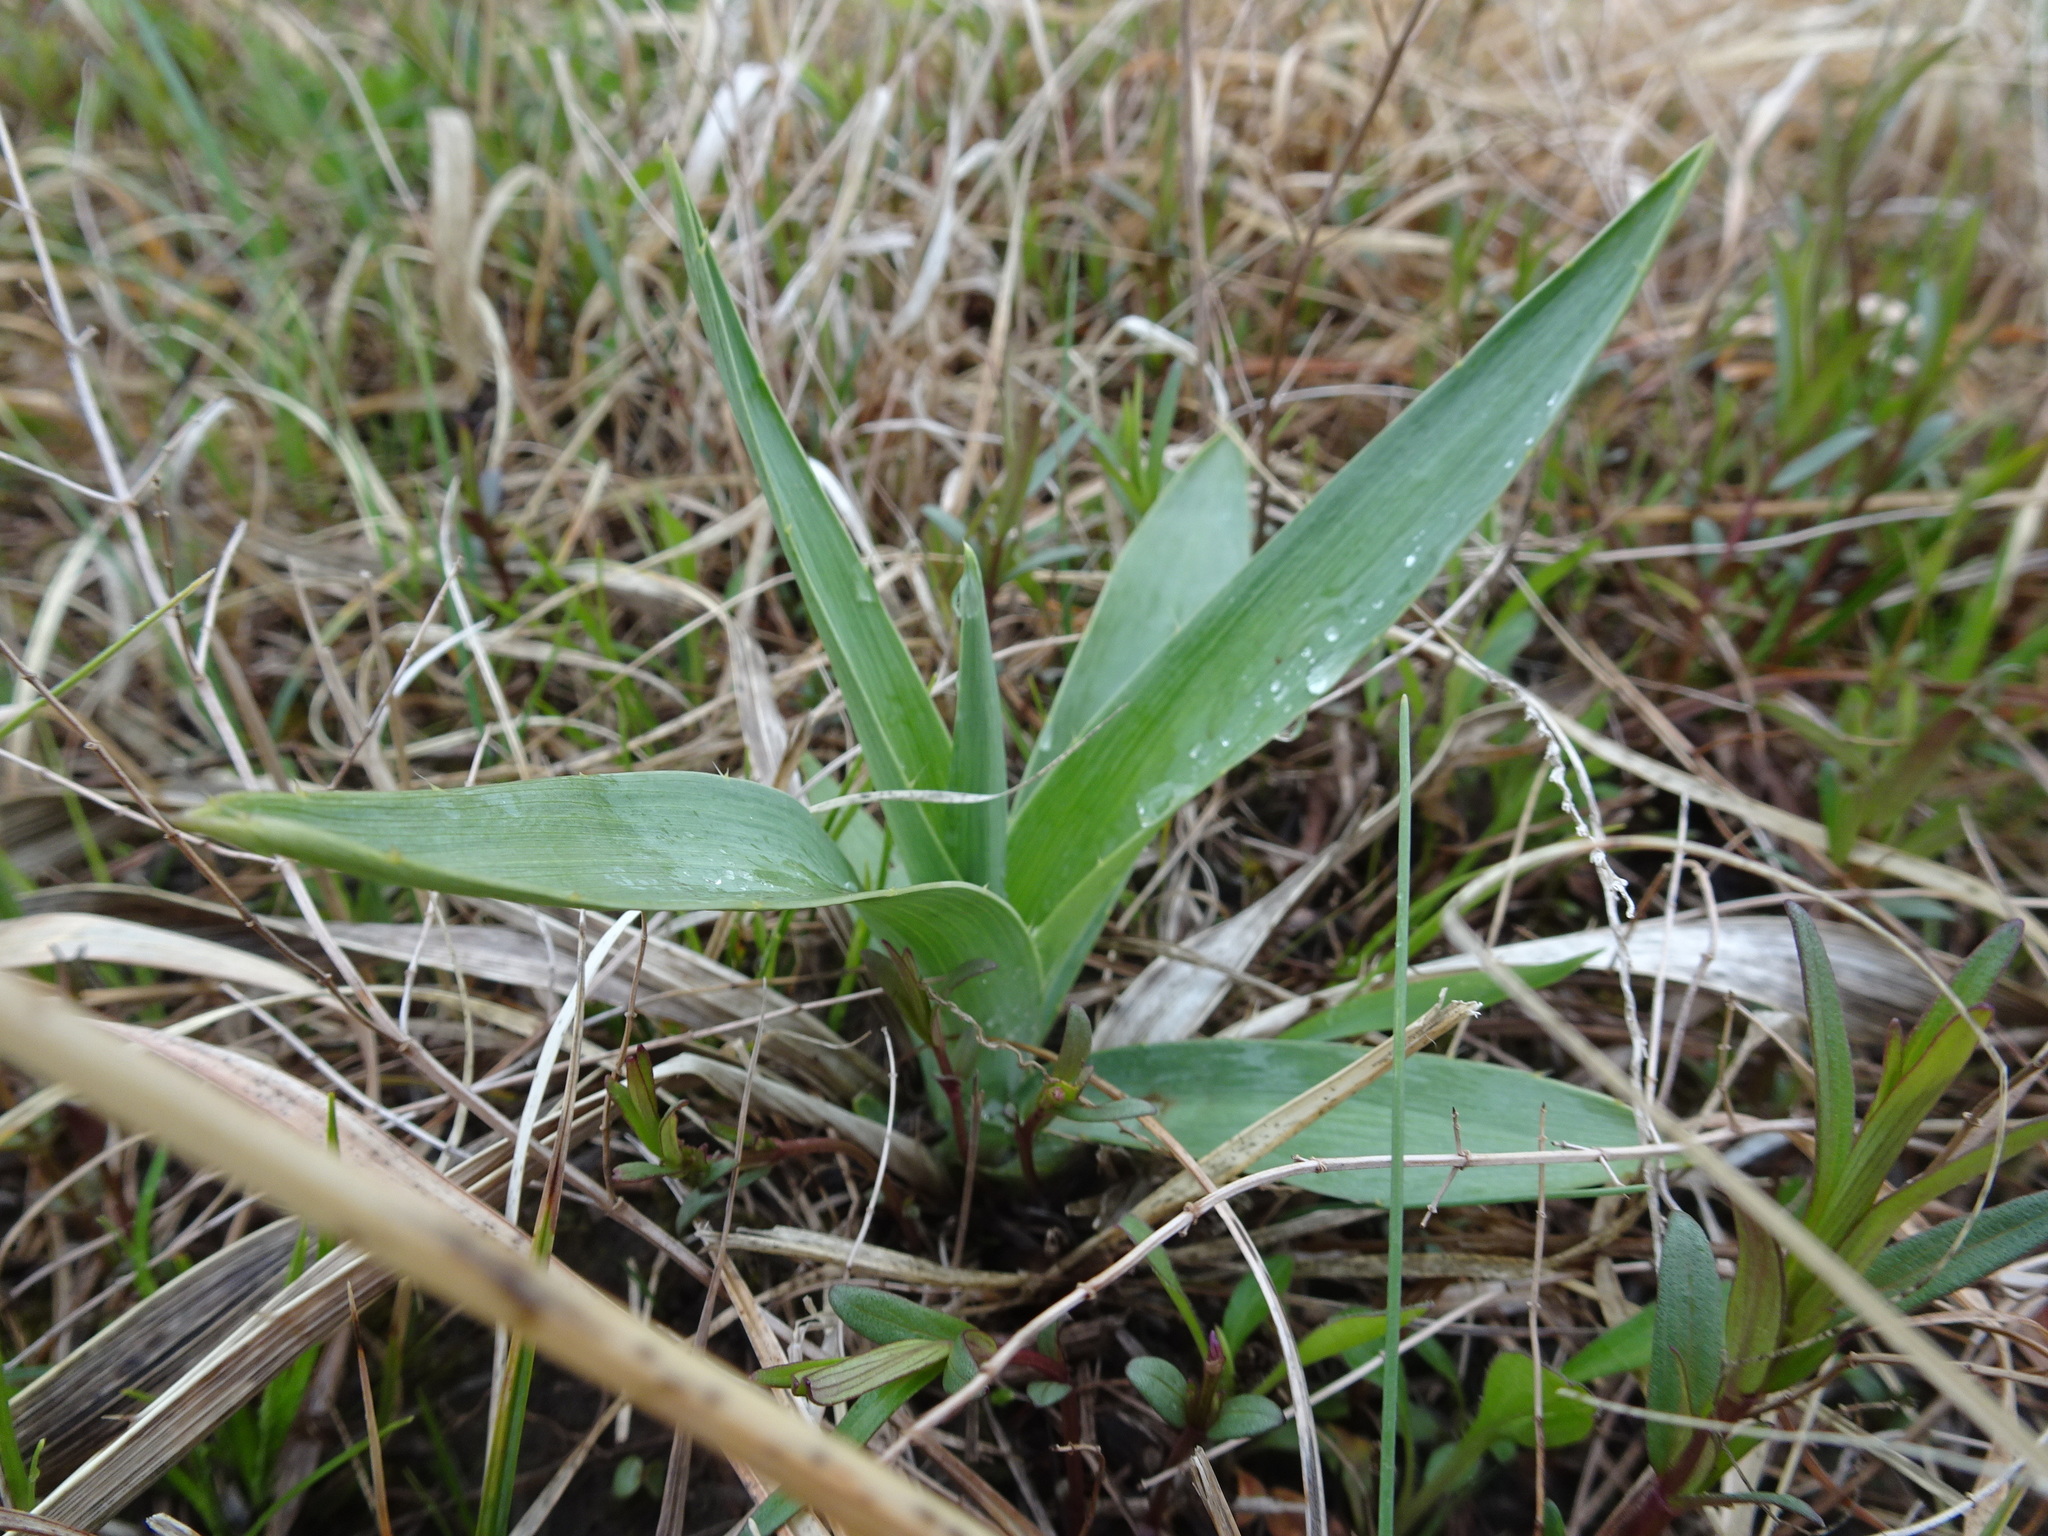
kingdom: Plantae
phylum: Tracheophyta
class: Magnoliopsida
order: Apiales
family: Apiaceae
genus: Eryngium
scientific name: Eryngium yuccifolium
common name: Button eryngo
